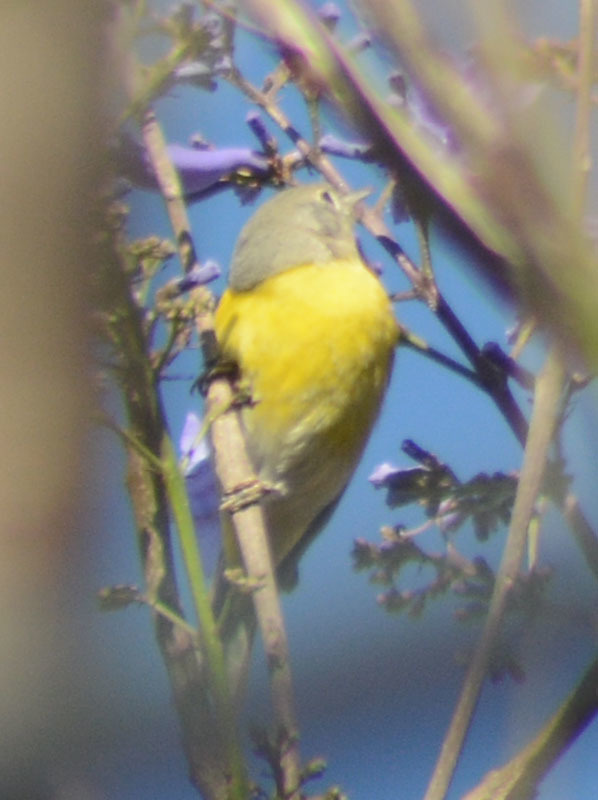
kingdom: Animalia
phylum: Chordata
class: Aves
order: Passeriformes
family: Parulidae
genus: Leiothlypis
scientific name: Leiothlypis ruficapilla
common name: Nashville warbler
